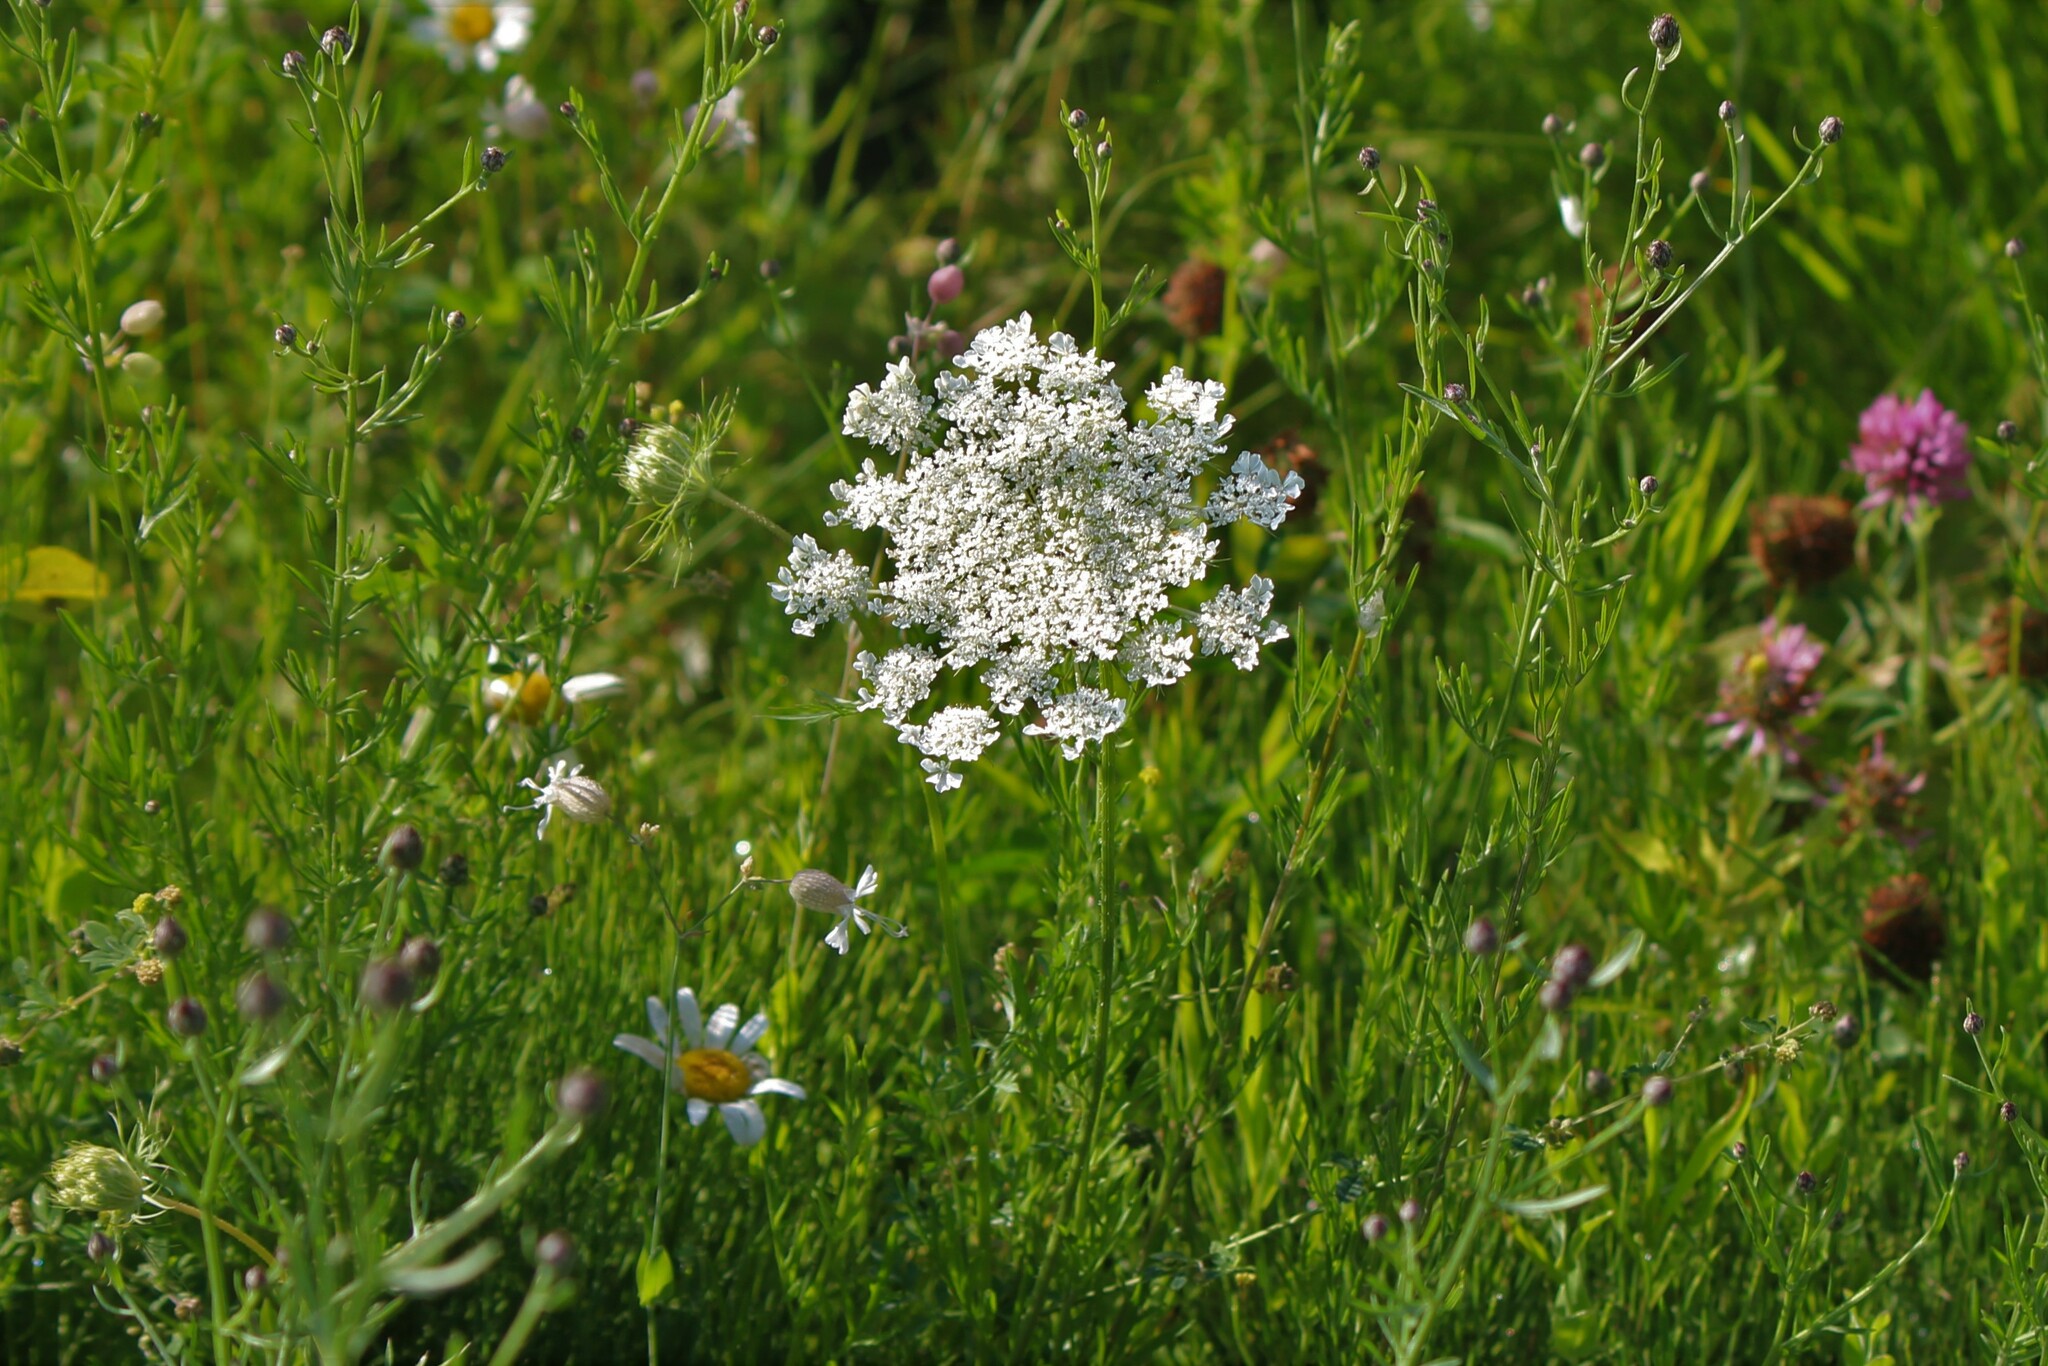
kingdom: Plantae
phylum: Tracheophyta
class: Magnoliopsida
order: Apiales
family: Apiaceae
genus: Daucus
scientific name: Daucus carota
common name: Wild carrot
